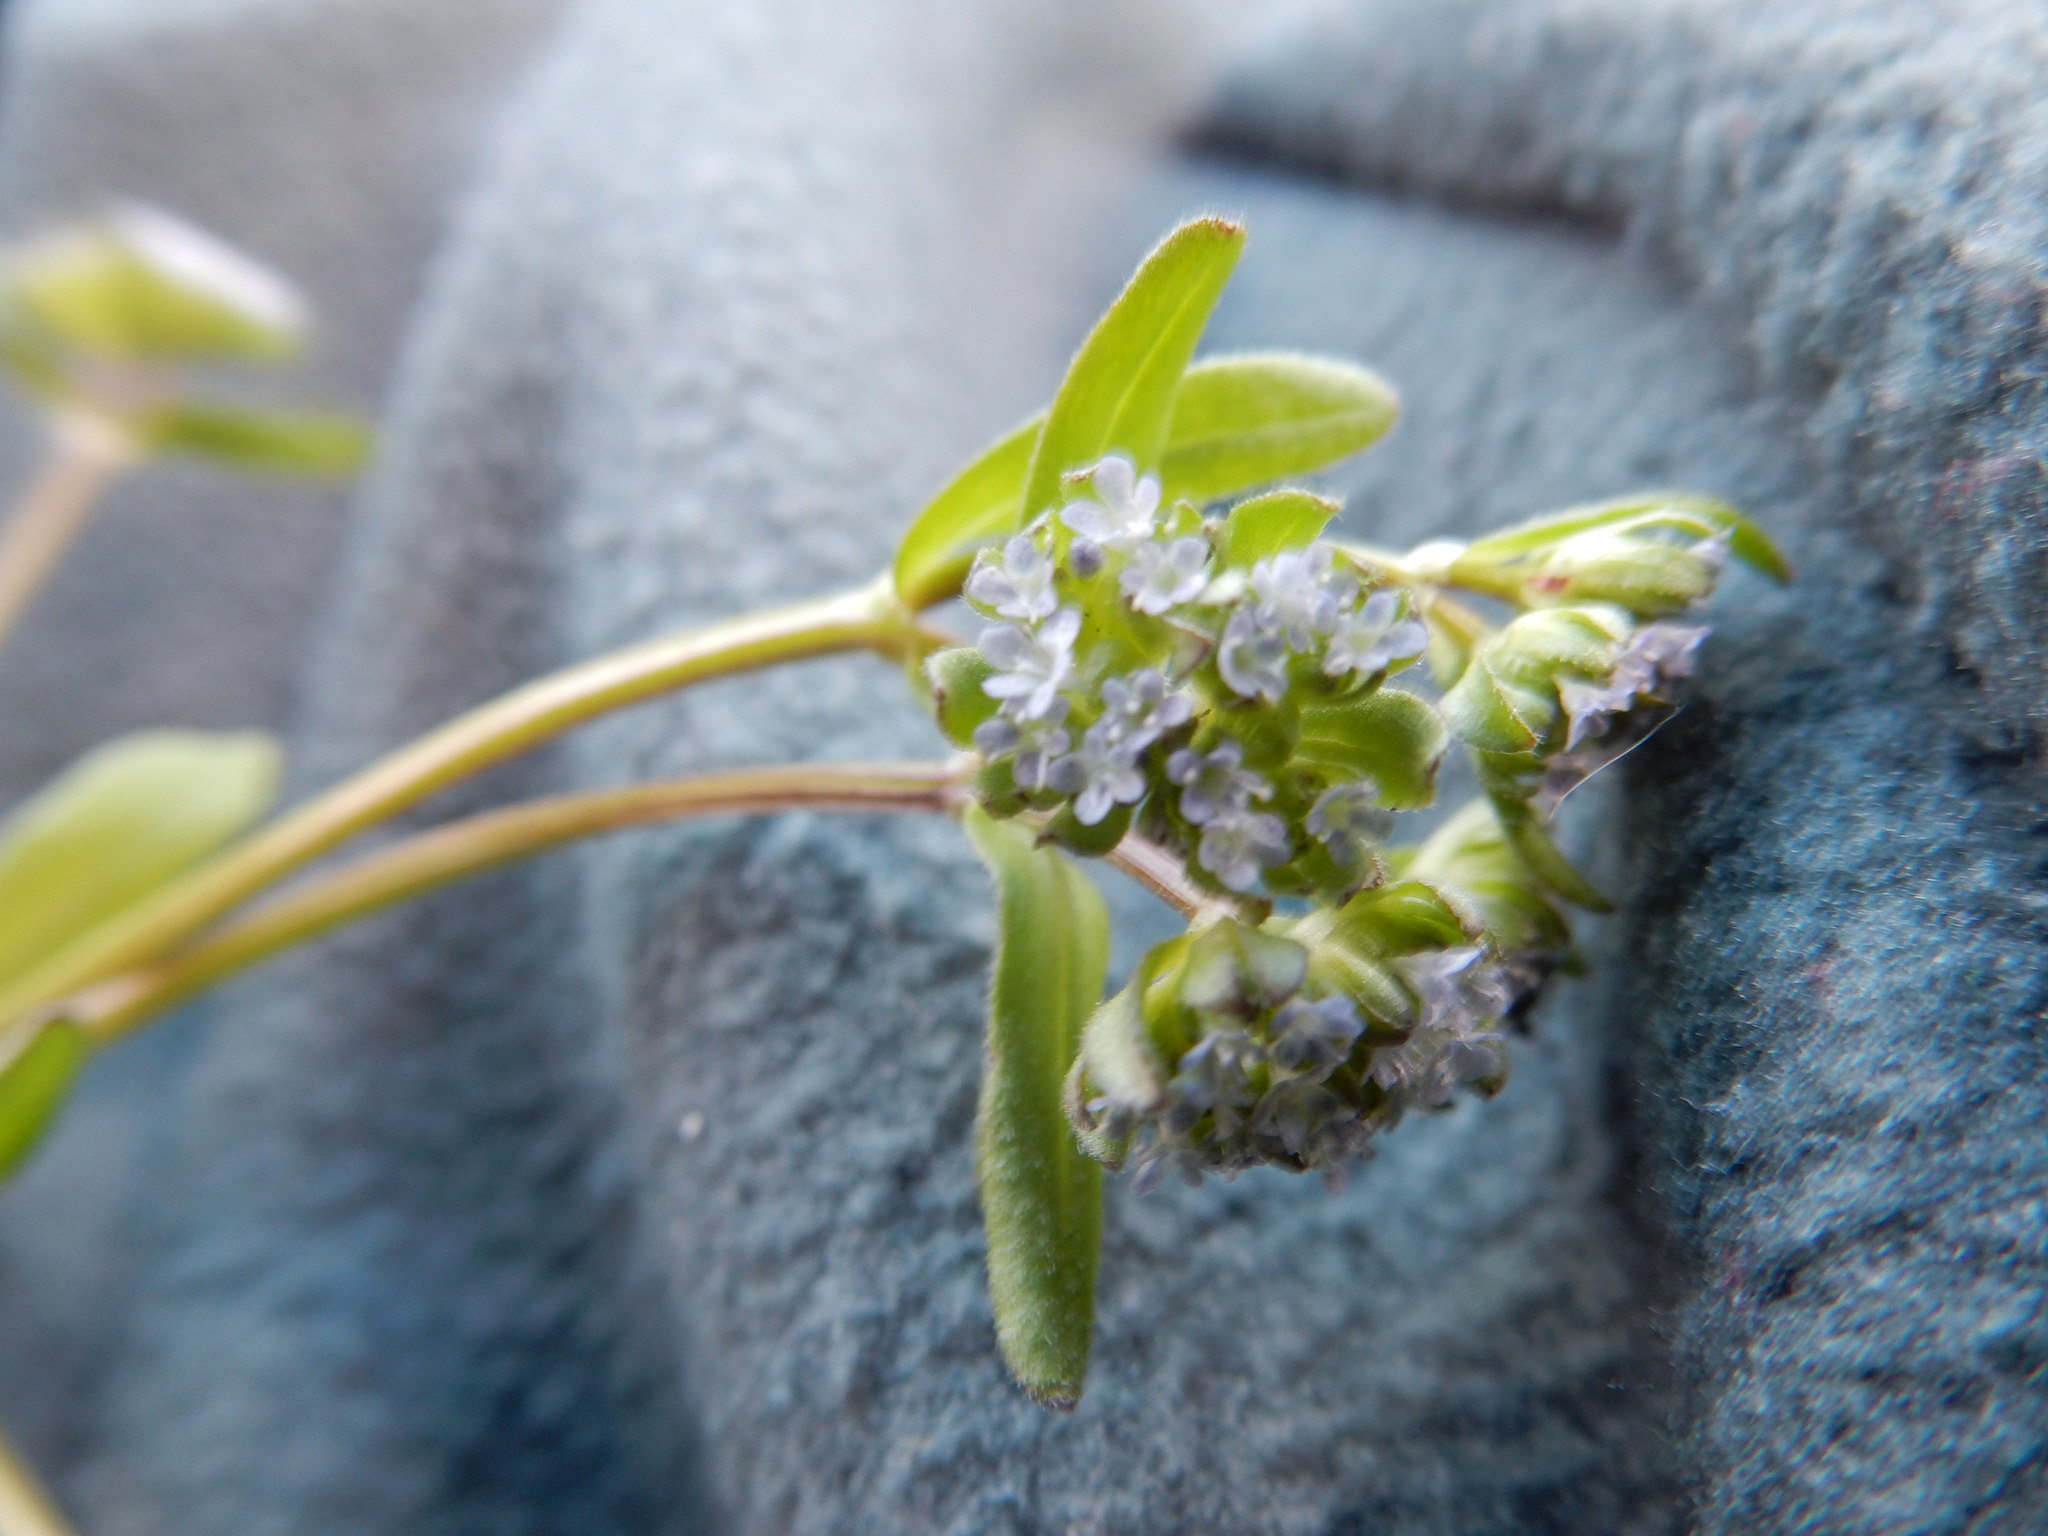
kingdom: Plantae
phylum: Tracheophyta
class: Magnoliopsida
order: Dipsacales
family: Caprifoliaceae
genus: Valerianella
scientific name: Valerianella locusta
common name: Common cornsalad
